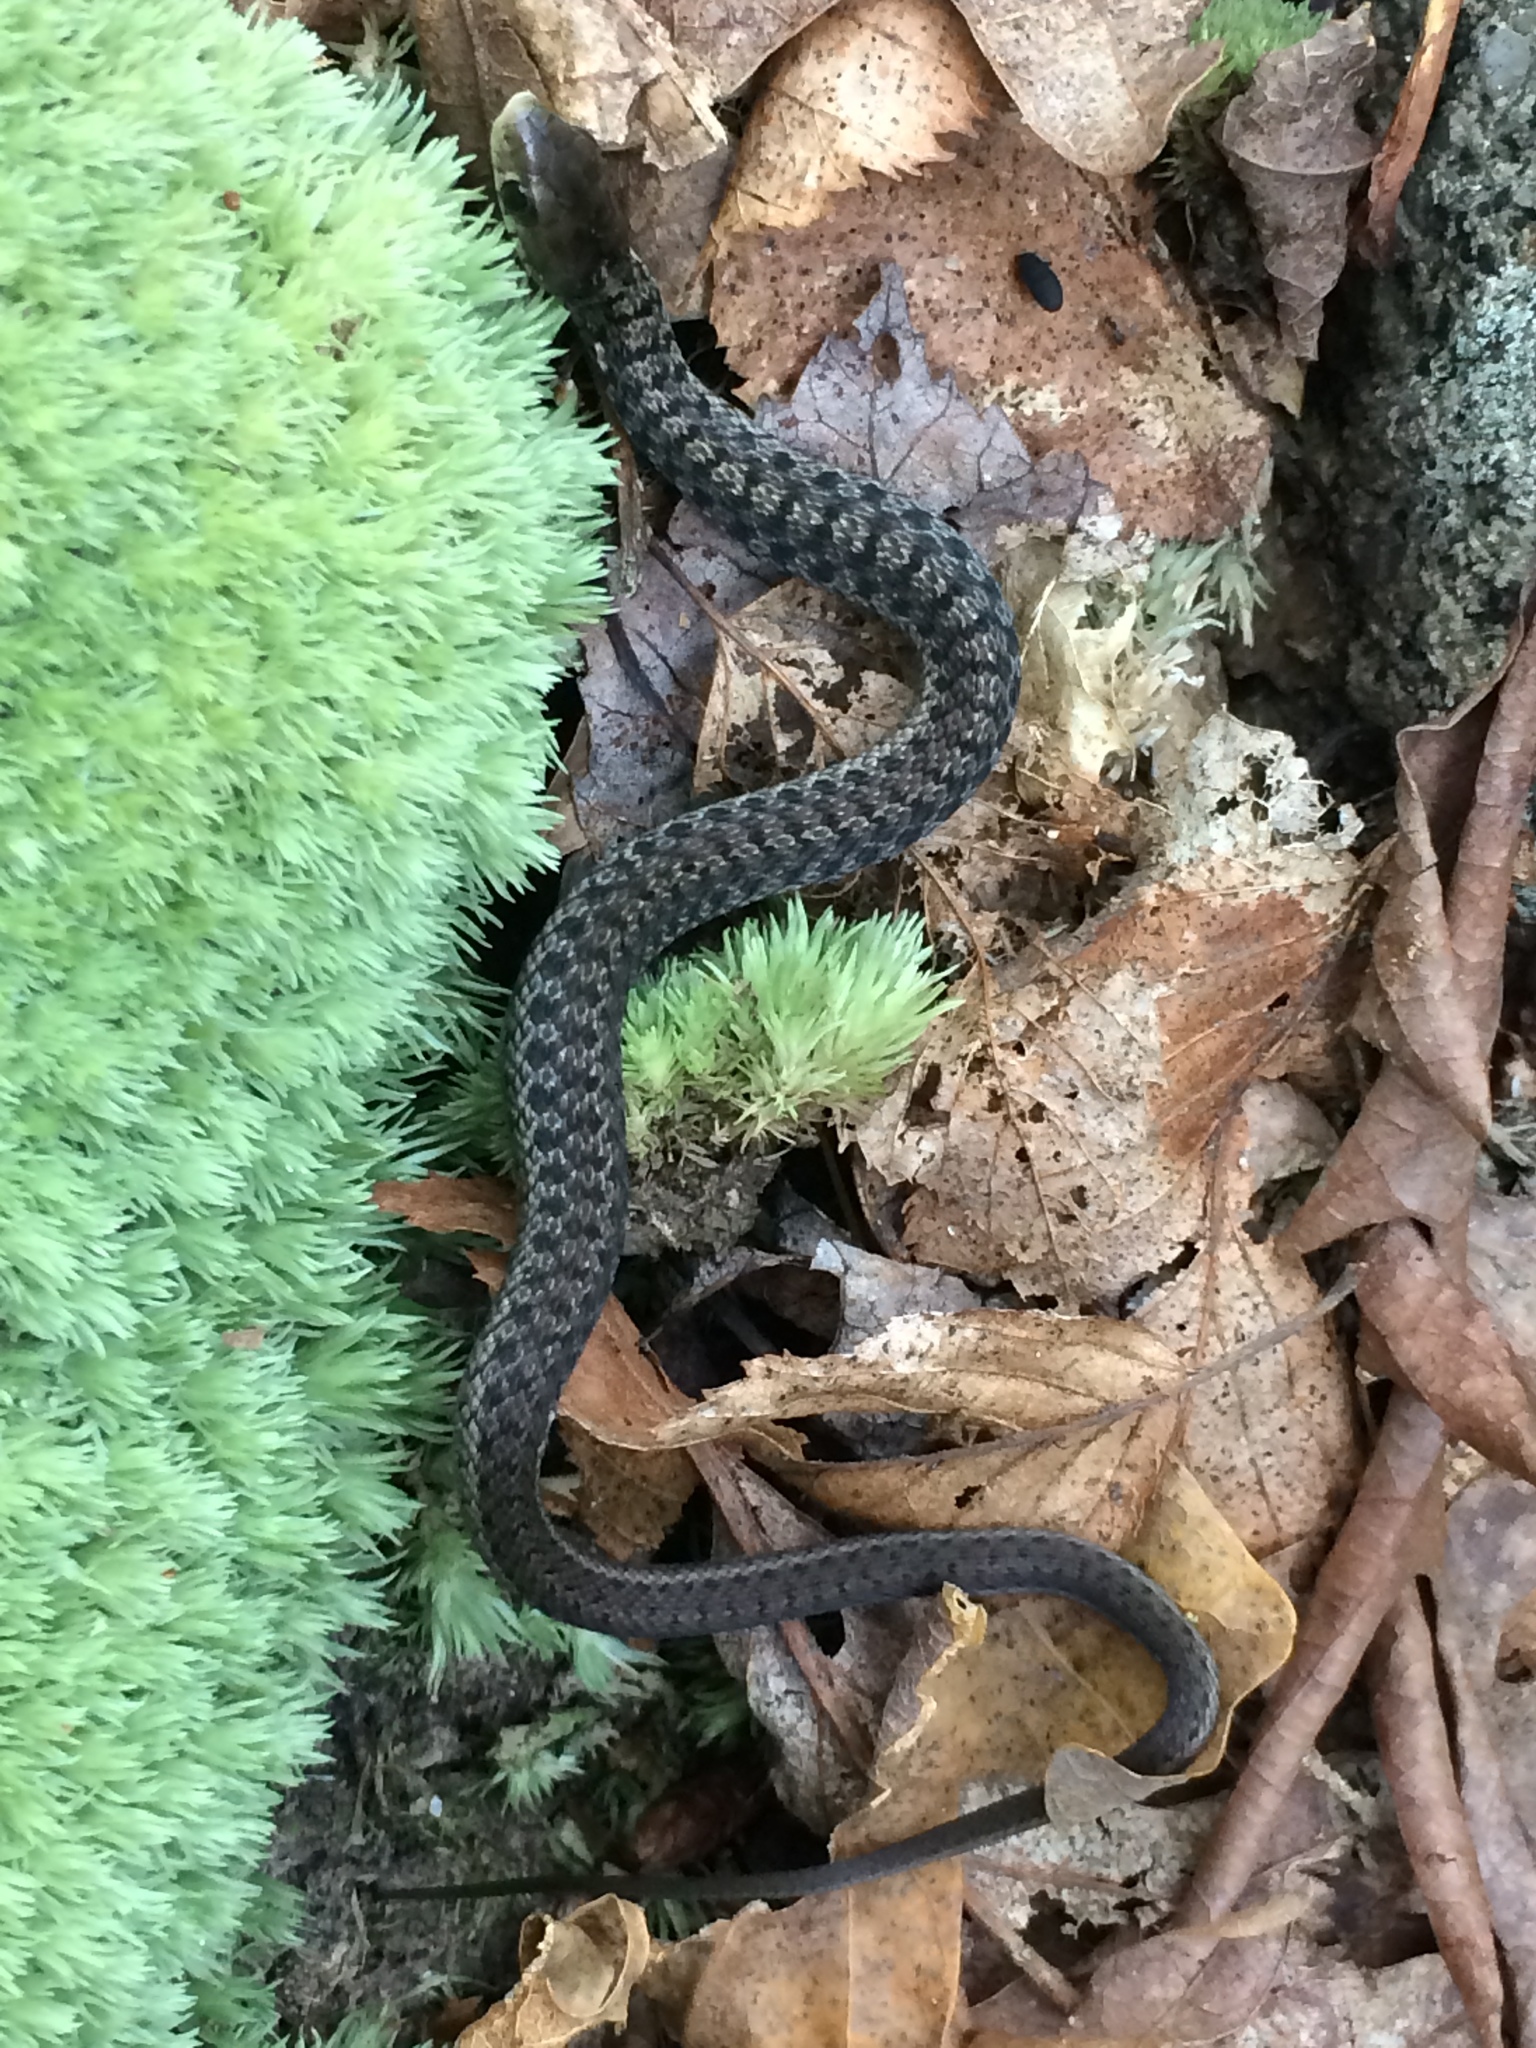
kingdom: Animalia
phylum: Chordata
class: Squamata
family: Colubridae
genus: Thamnophis
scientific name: Thamnophis sirtalis
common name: Common garter snake
